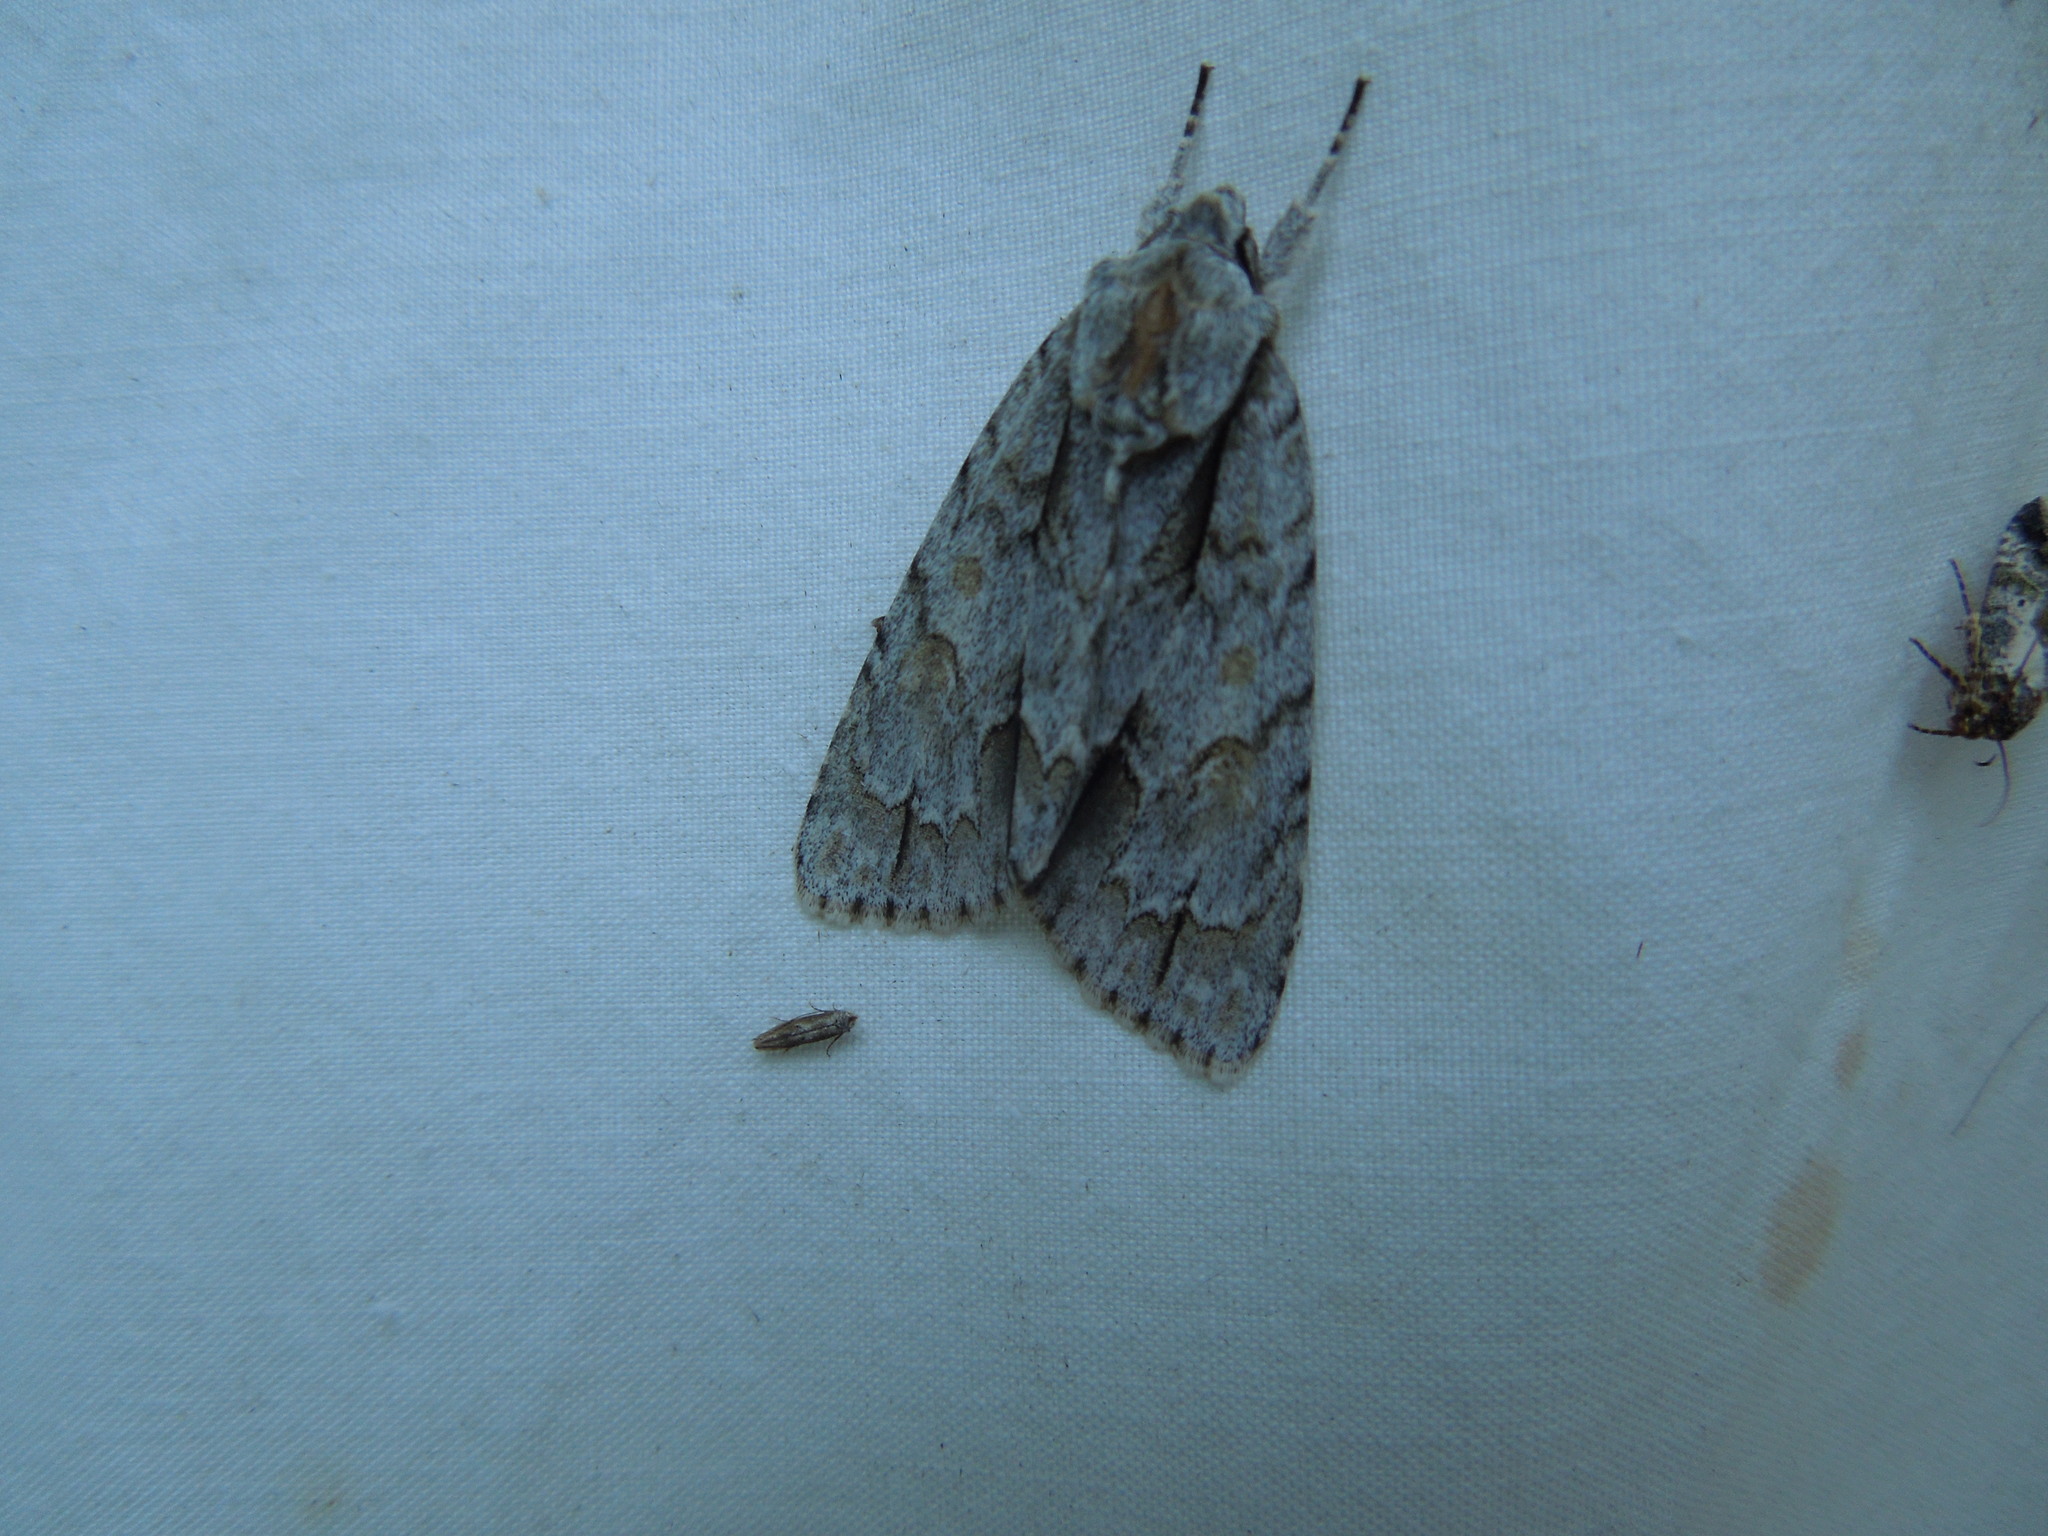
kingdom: Animalia
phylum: Arthropoda
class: Insecta
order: Lepidoptera
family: Noctuidae
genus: Acronicta
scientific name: Acronicta morula
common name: Ochre dagger
